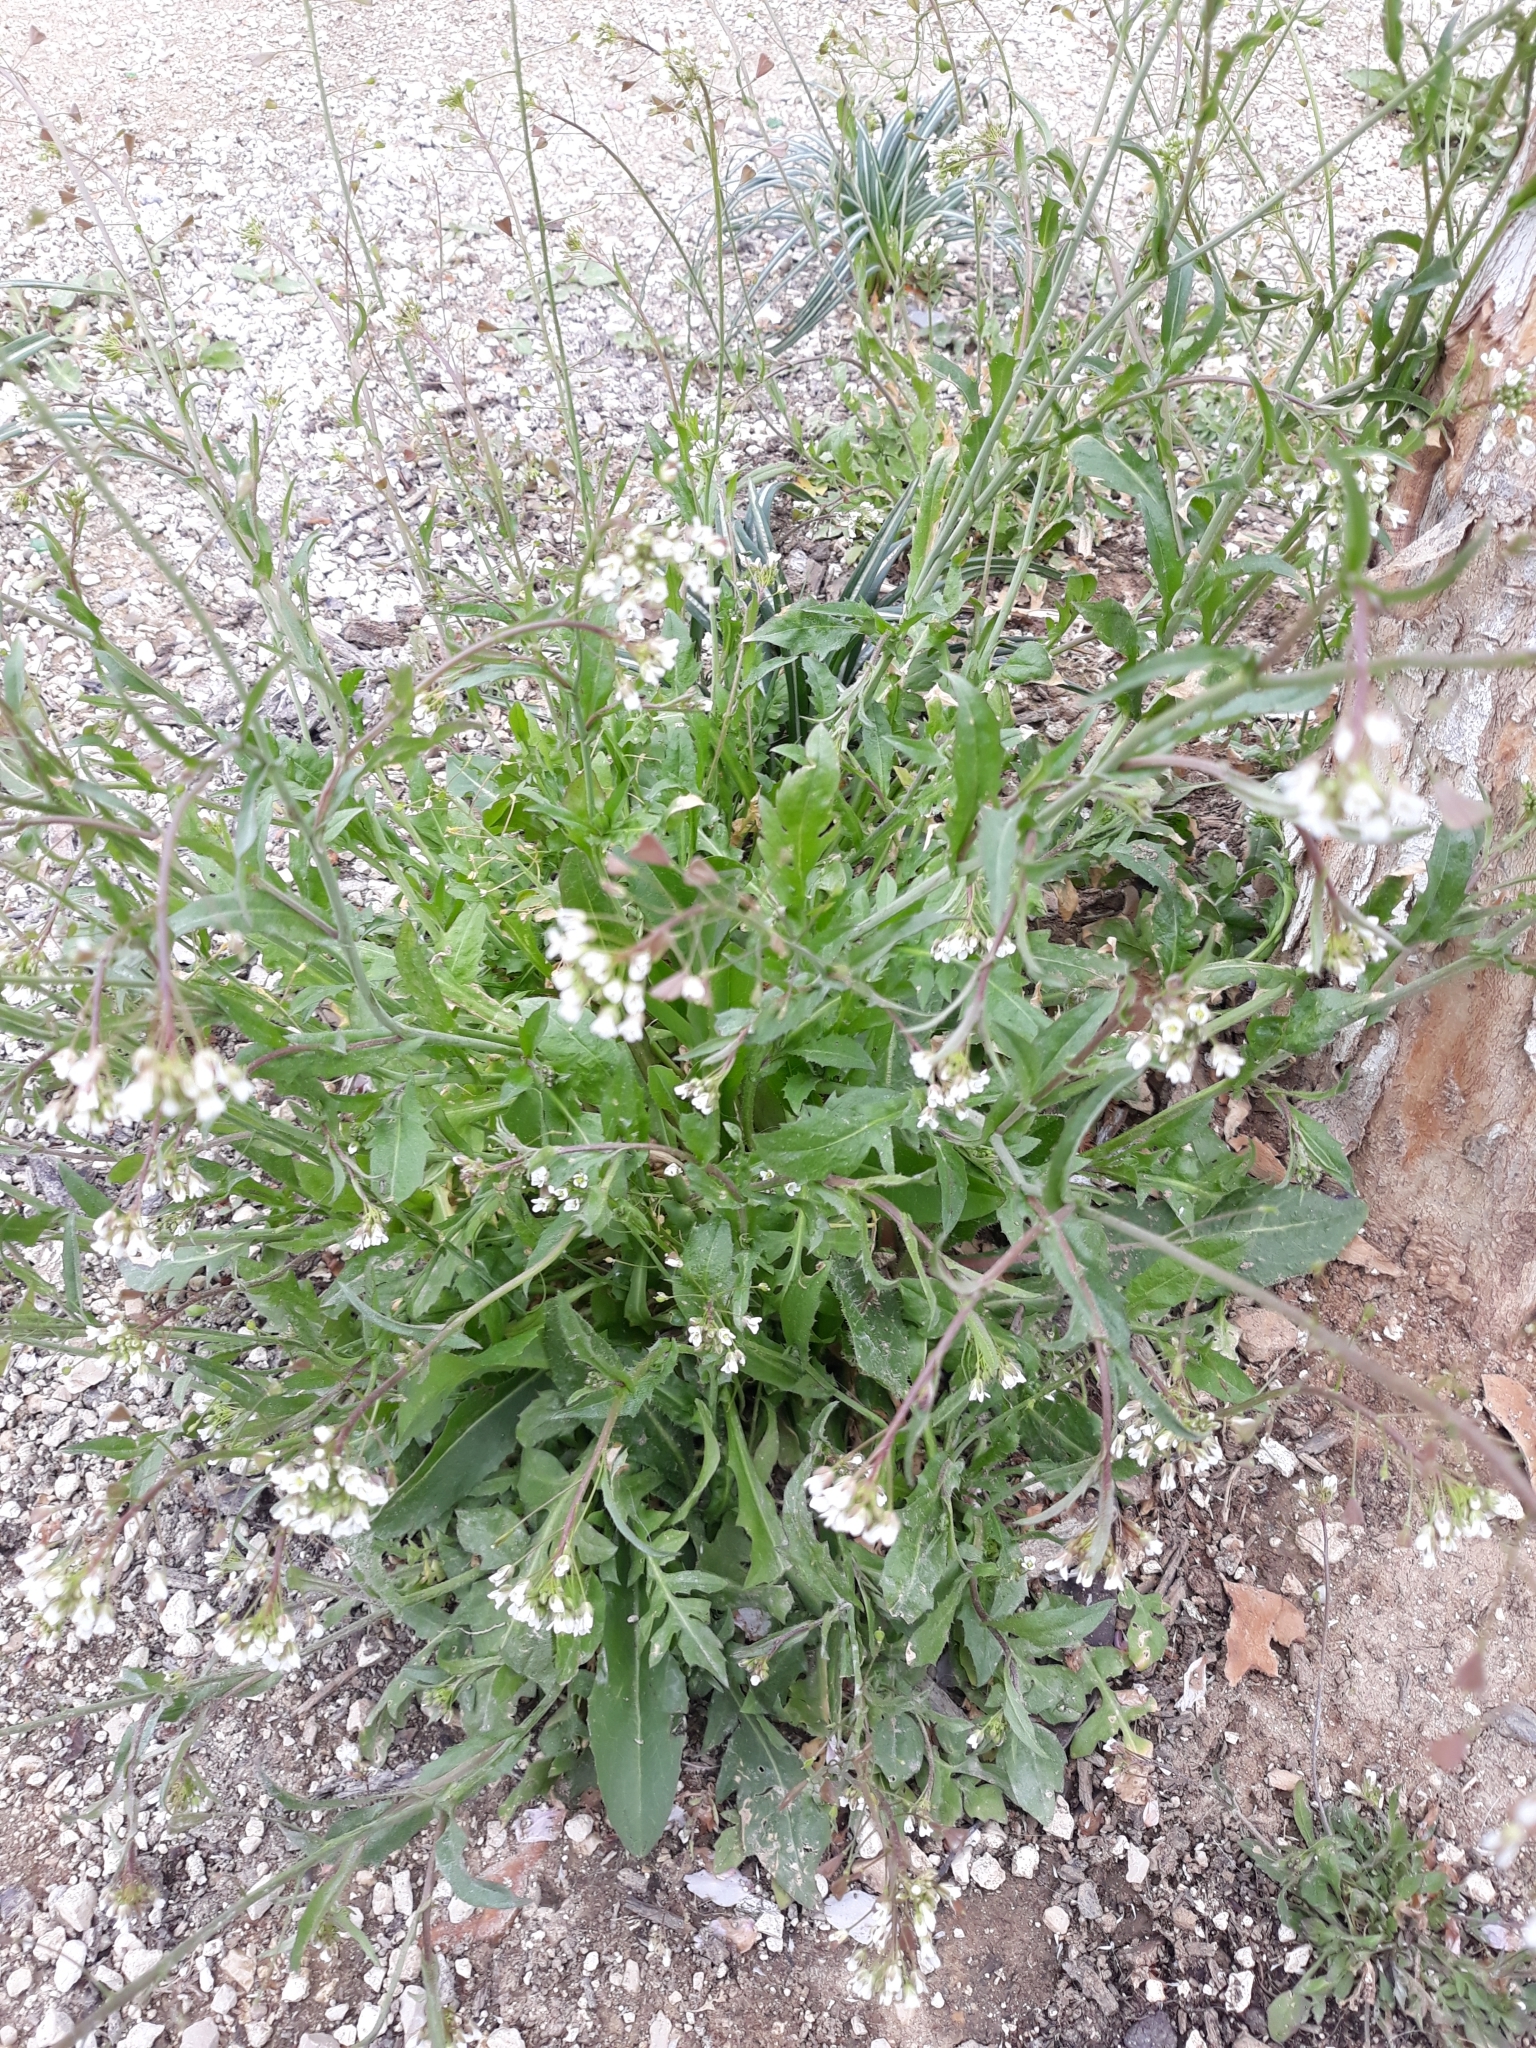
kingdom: Plantae
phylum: Tracheophyta
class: Magnoliopsida
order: Brassicales
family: Brassicaceae
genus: Capsella
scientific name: Capsella bursa-pastoris
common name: Shepherd's purse
